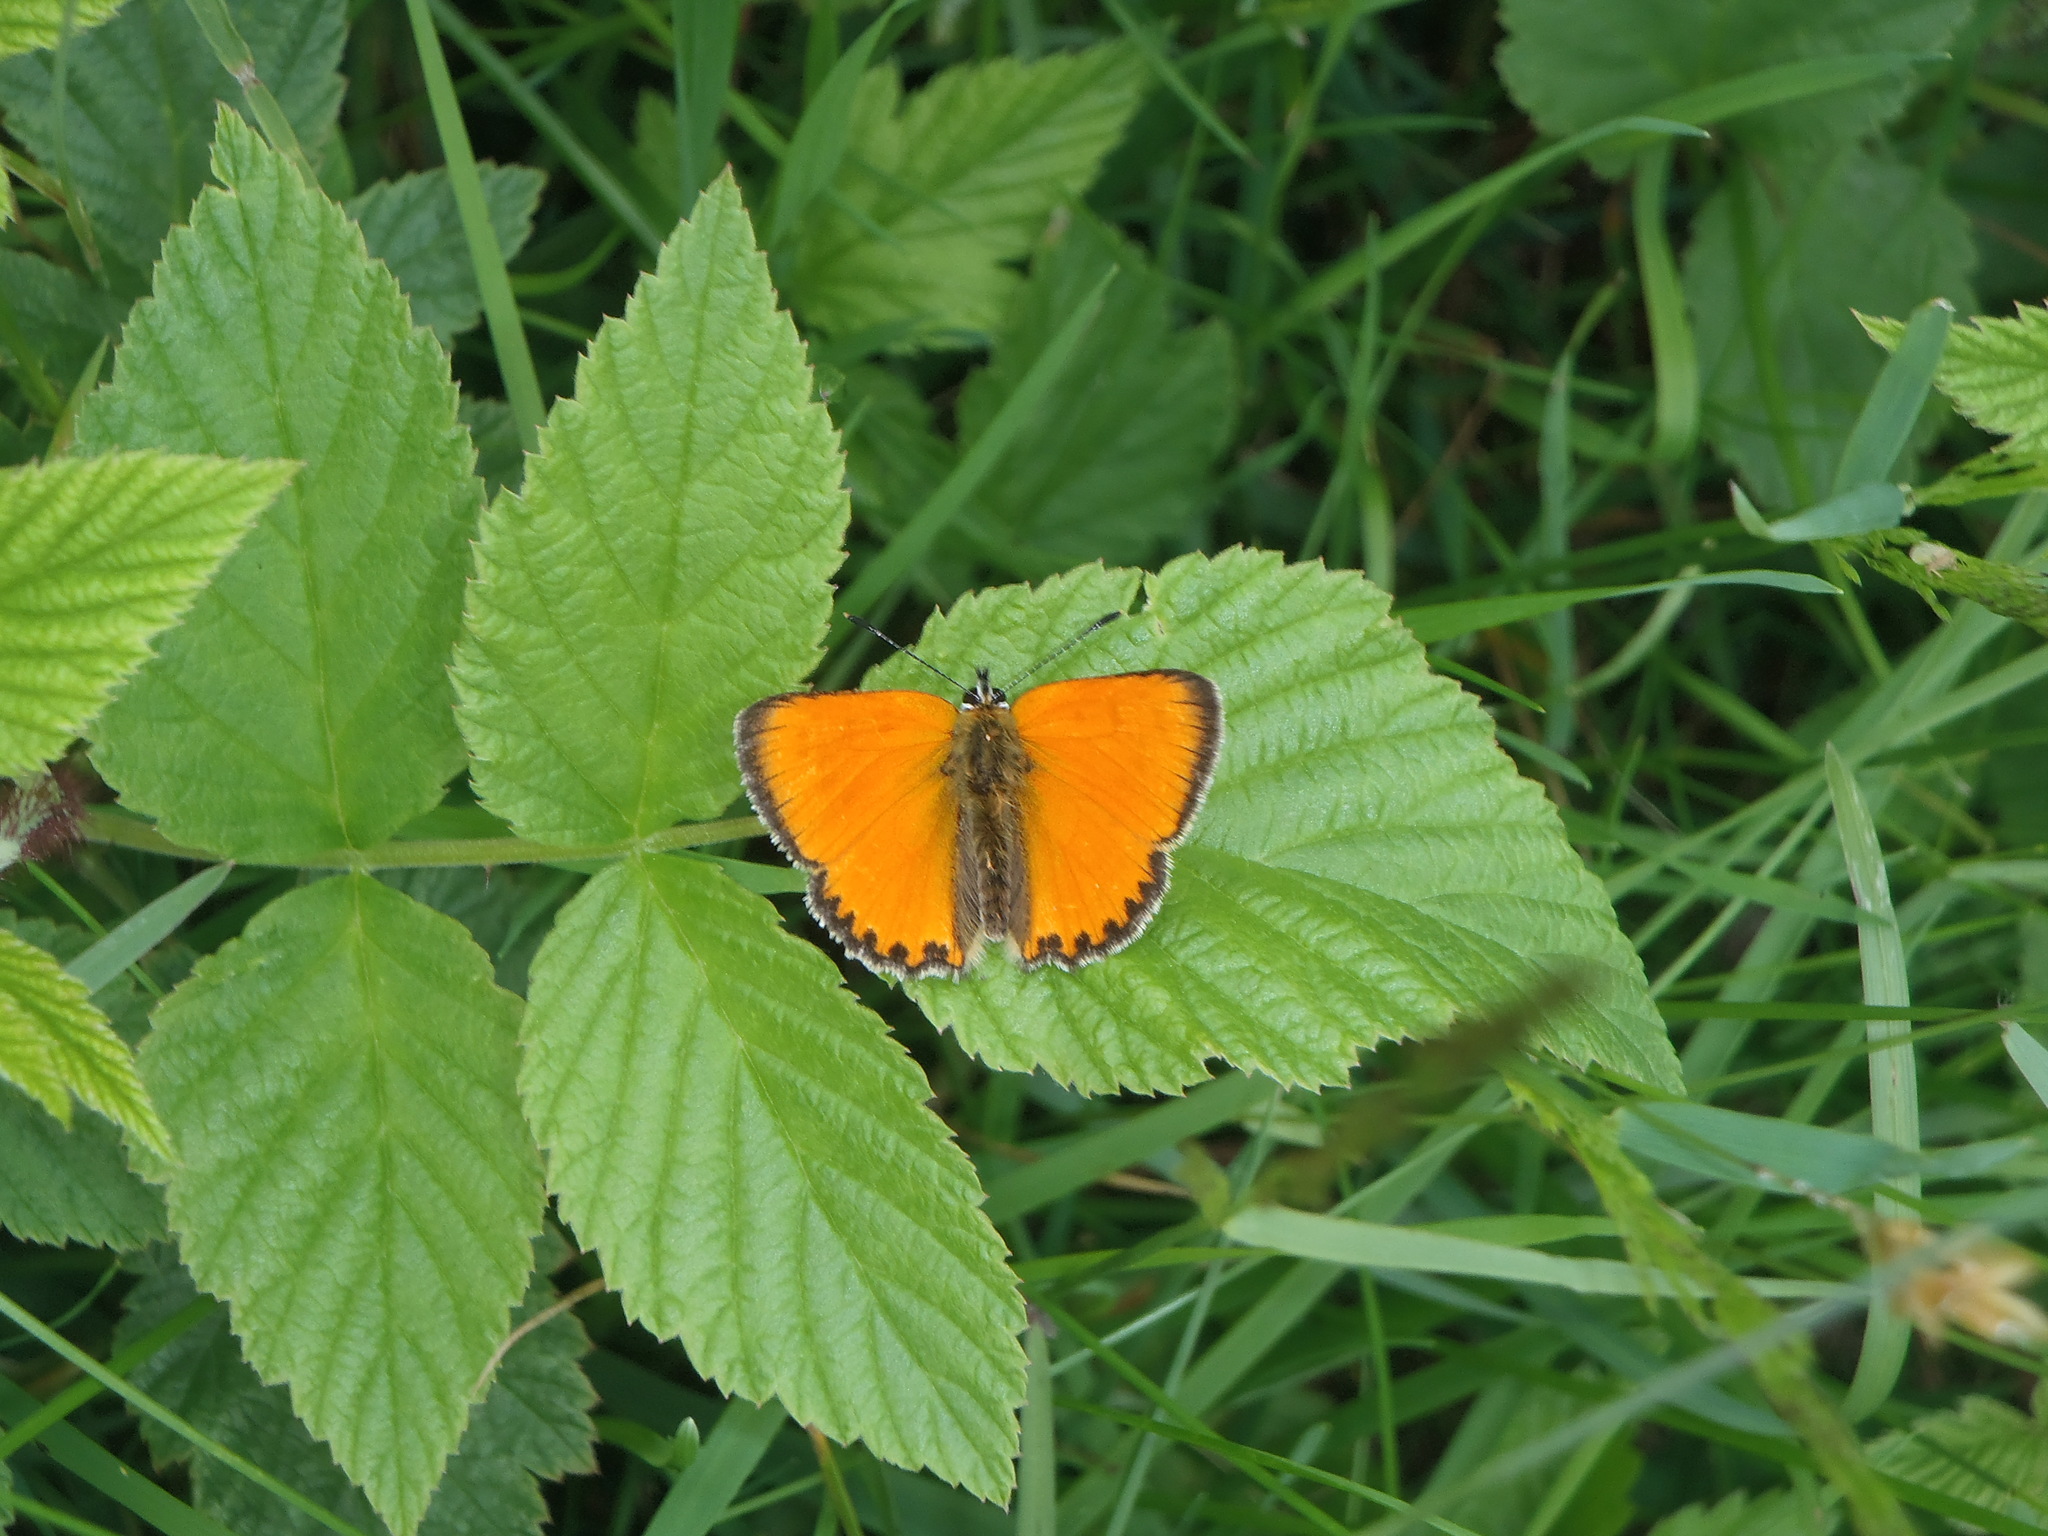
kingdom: Animalia
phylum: Arthropoda
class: Insecta
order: Lepidoptera
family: Lycaenidae
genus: Lycaena
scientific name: Lycaena virgaureae
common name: Scarce copper
